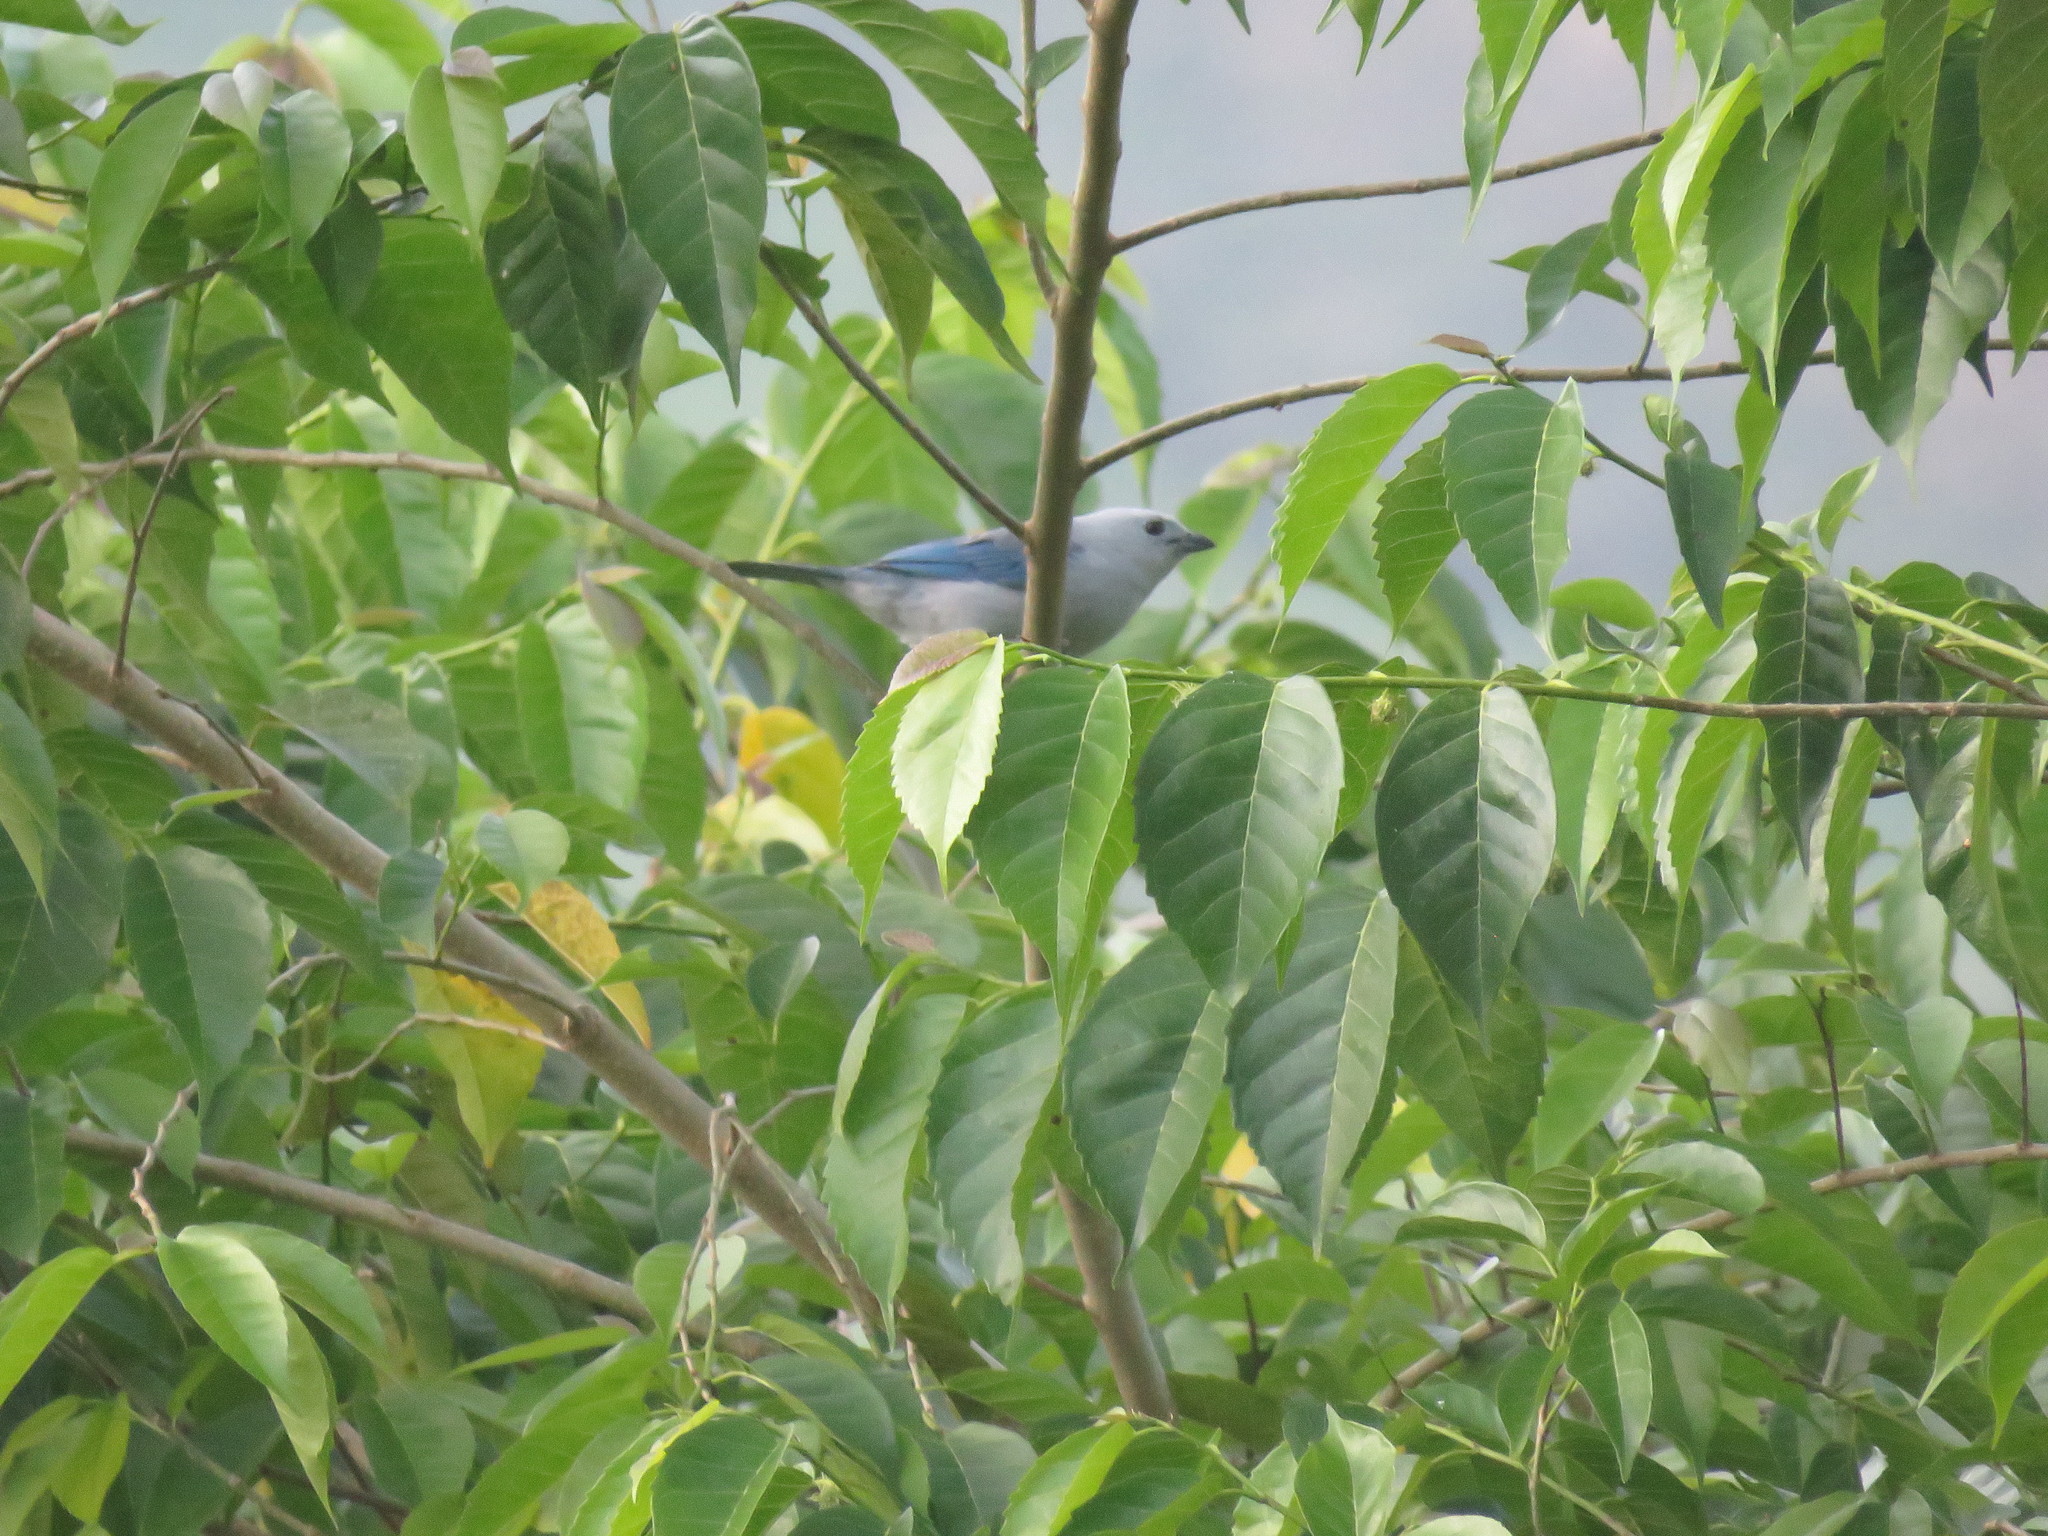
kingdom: Animalia
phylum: Chordata
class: Aves
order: Passeriformes
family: Thraupidae
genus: Thraupis
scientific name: Thraupis episcopus
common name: Blue-grey tanager
